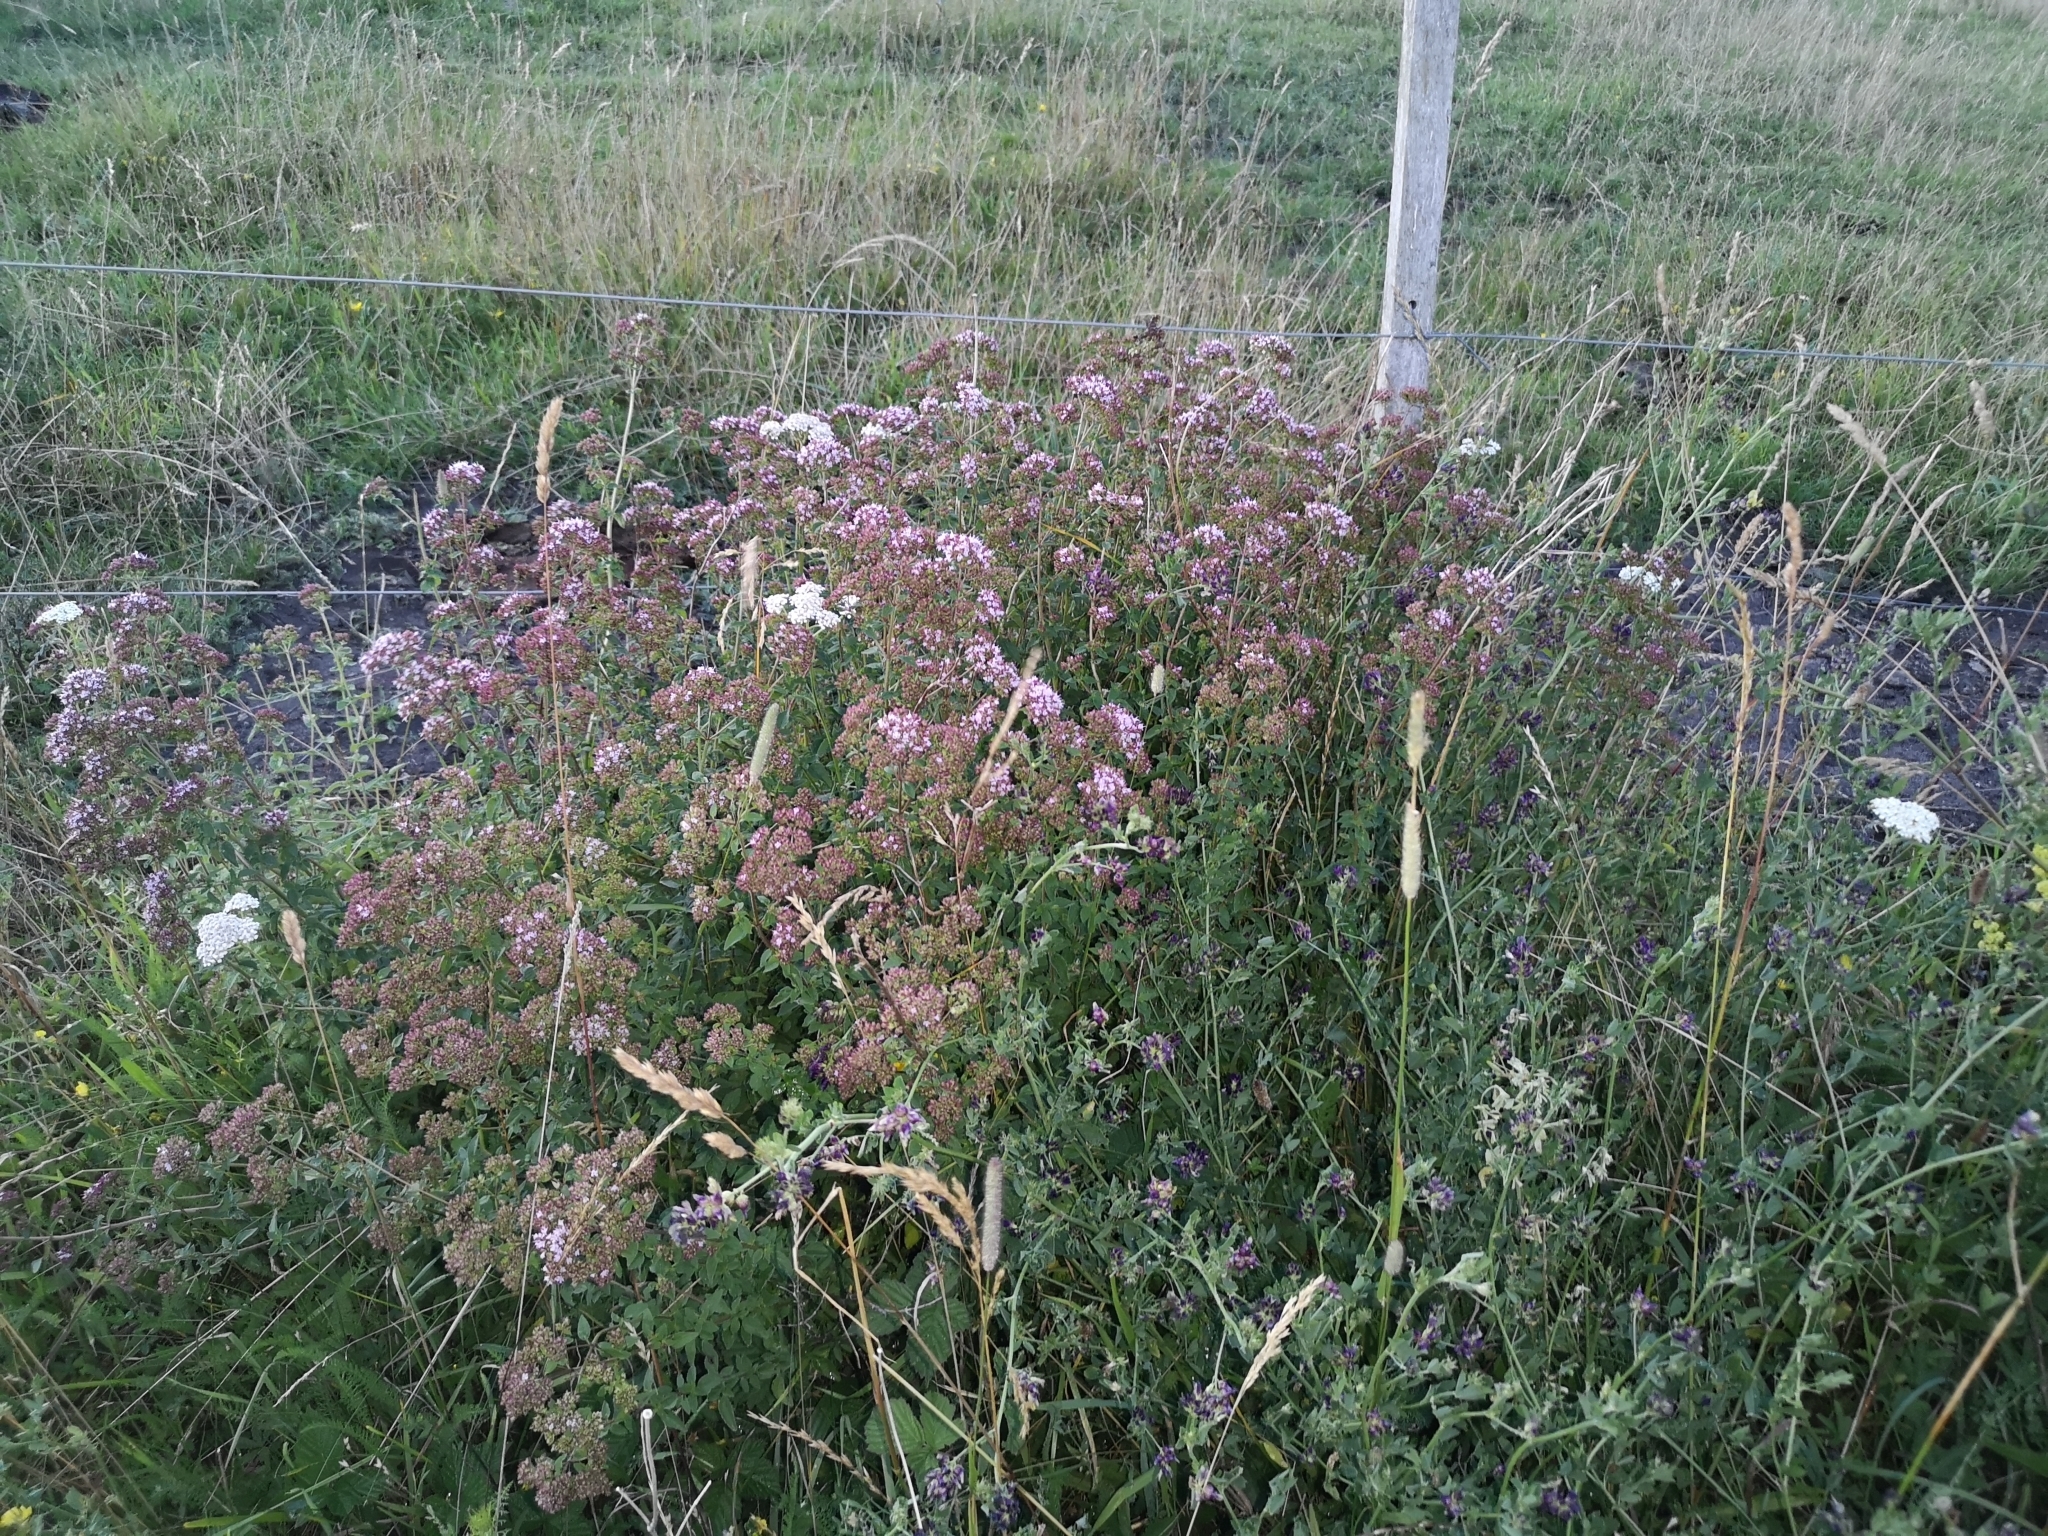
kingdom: Plantae
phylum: Tracheophyta
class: Magnoliopsida
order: Lamiales
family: Lamiaceae
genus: Origanum
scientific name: Origanum vulgare
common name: Wild marjoram
